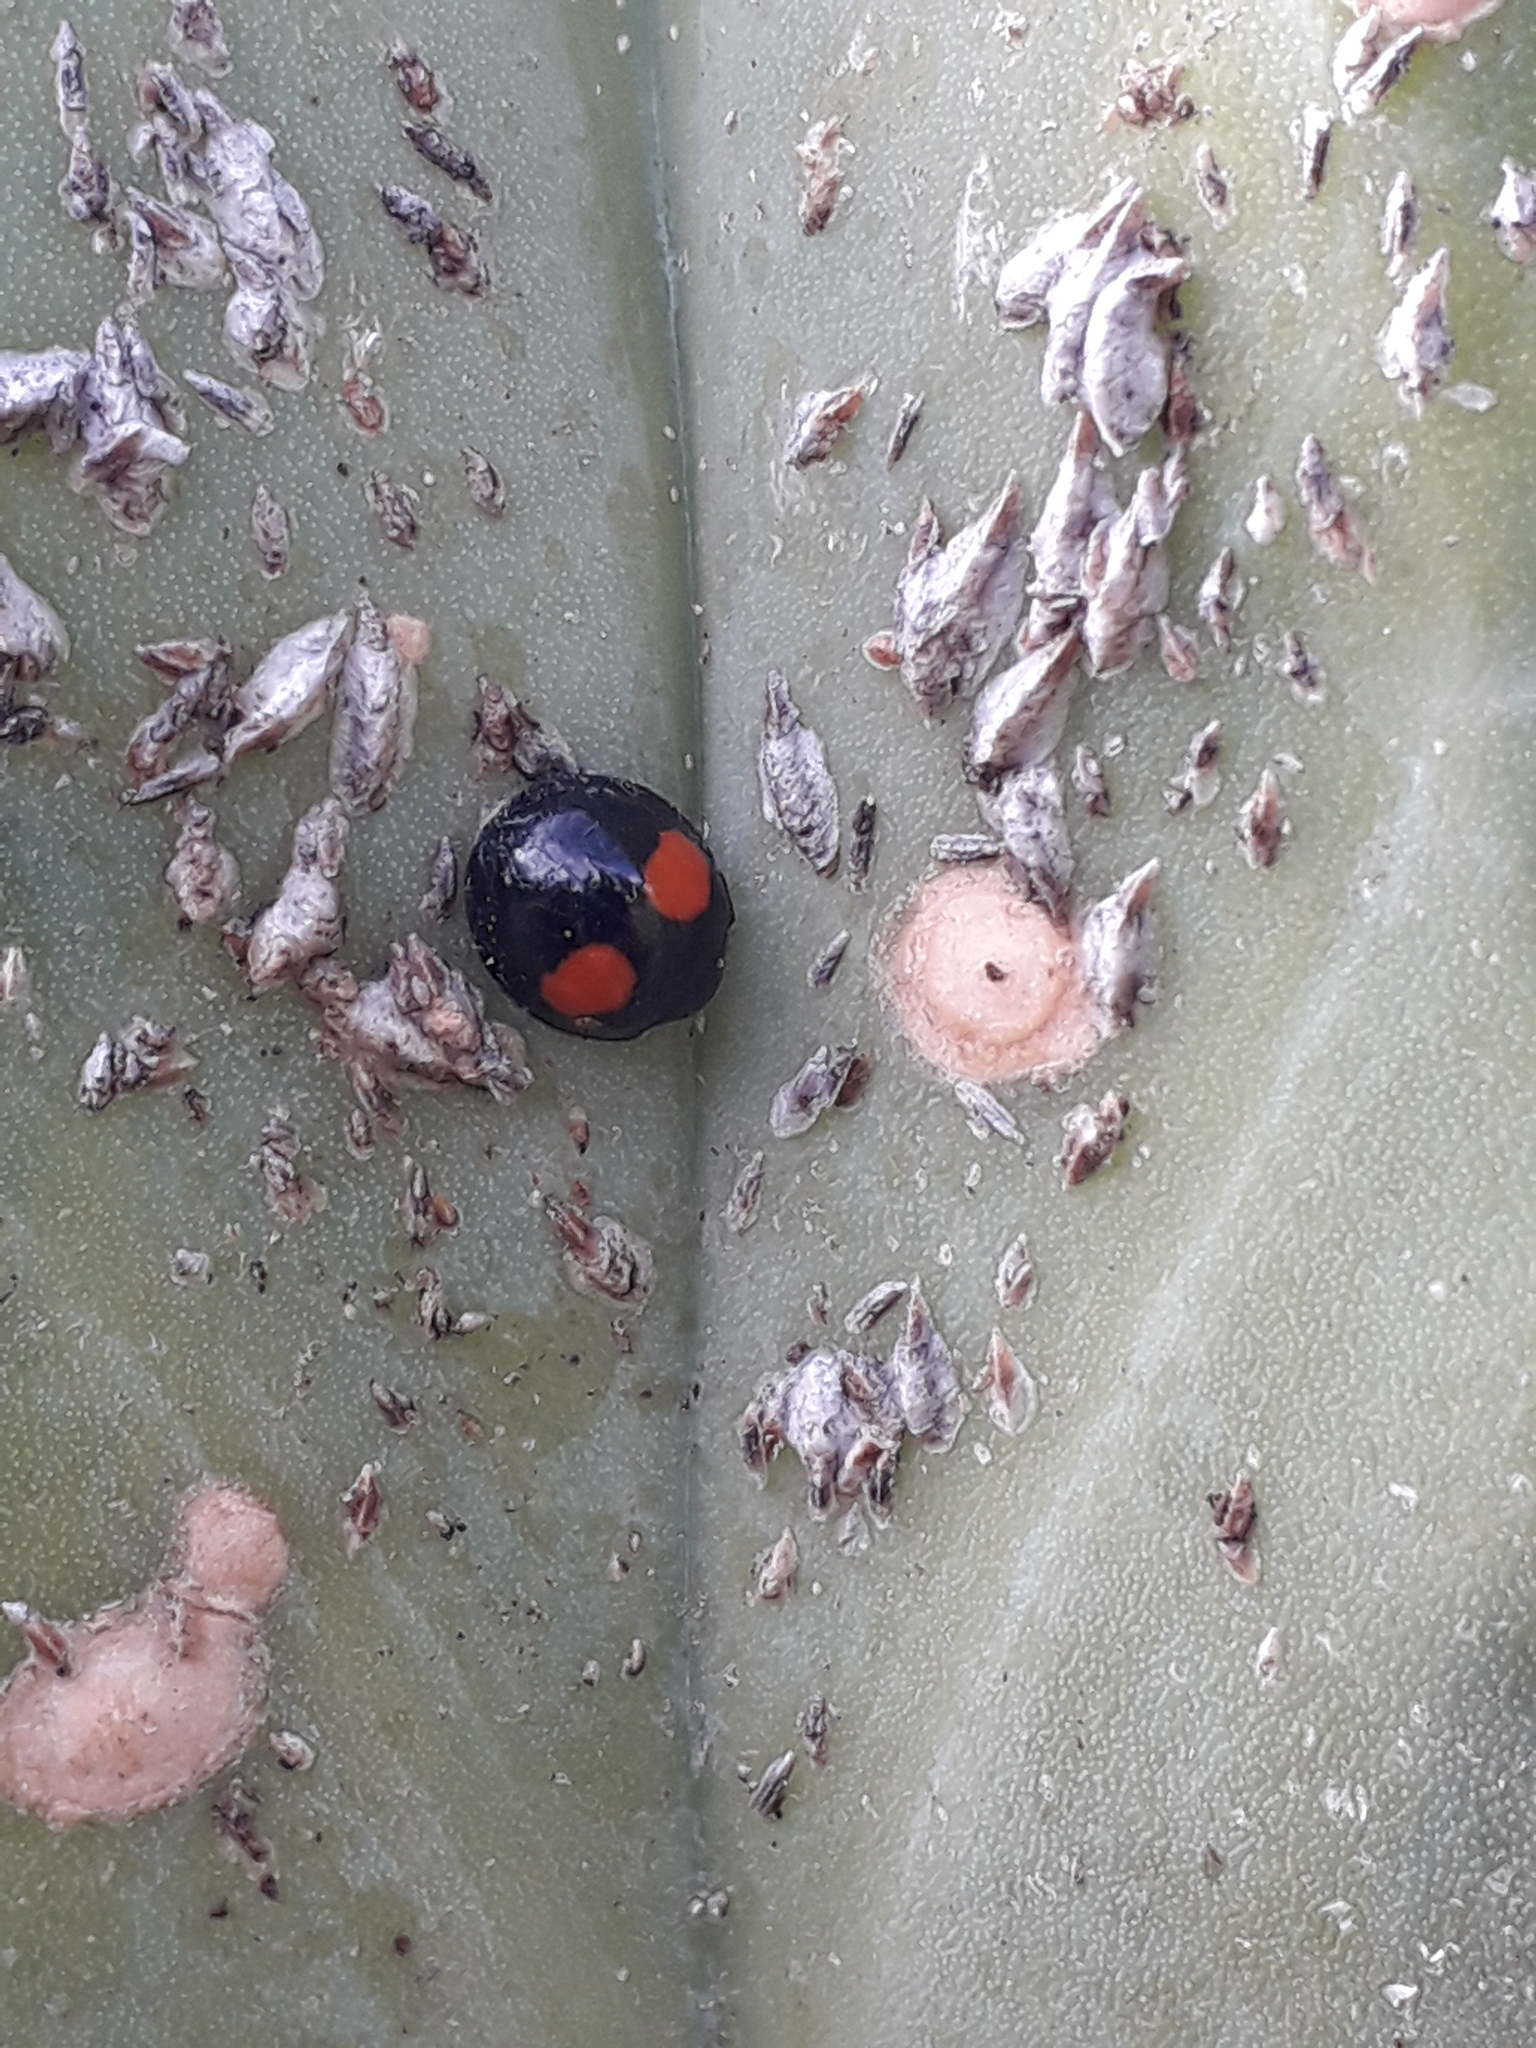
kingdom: Animalia
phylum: Arthropoda
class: Insecta
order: Coleoptera
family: Coccinellidae
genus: Chilocorus
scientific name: Chilocorus cacti
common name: Cactus lady beetle
